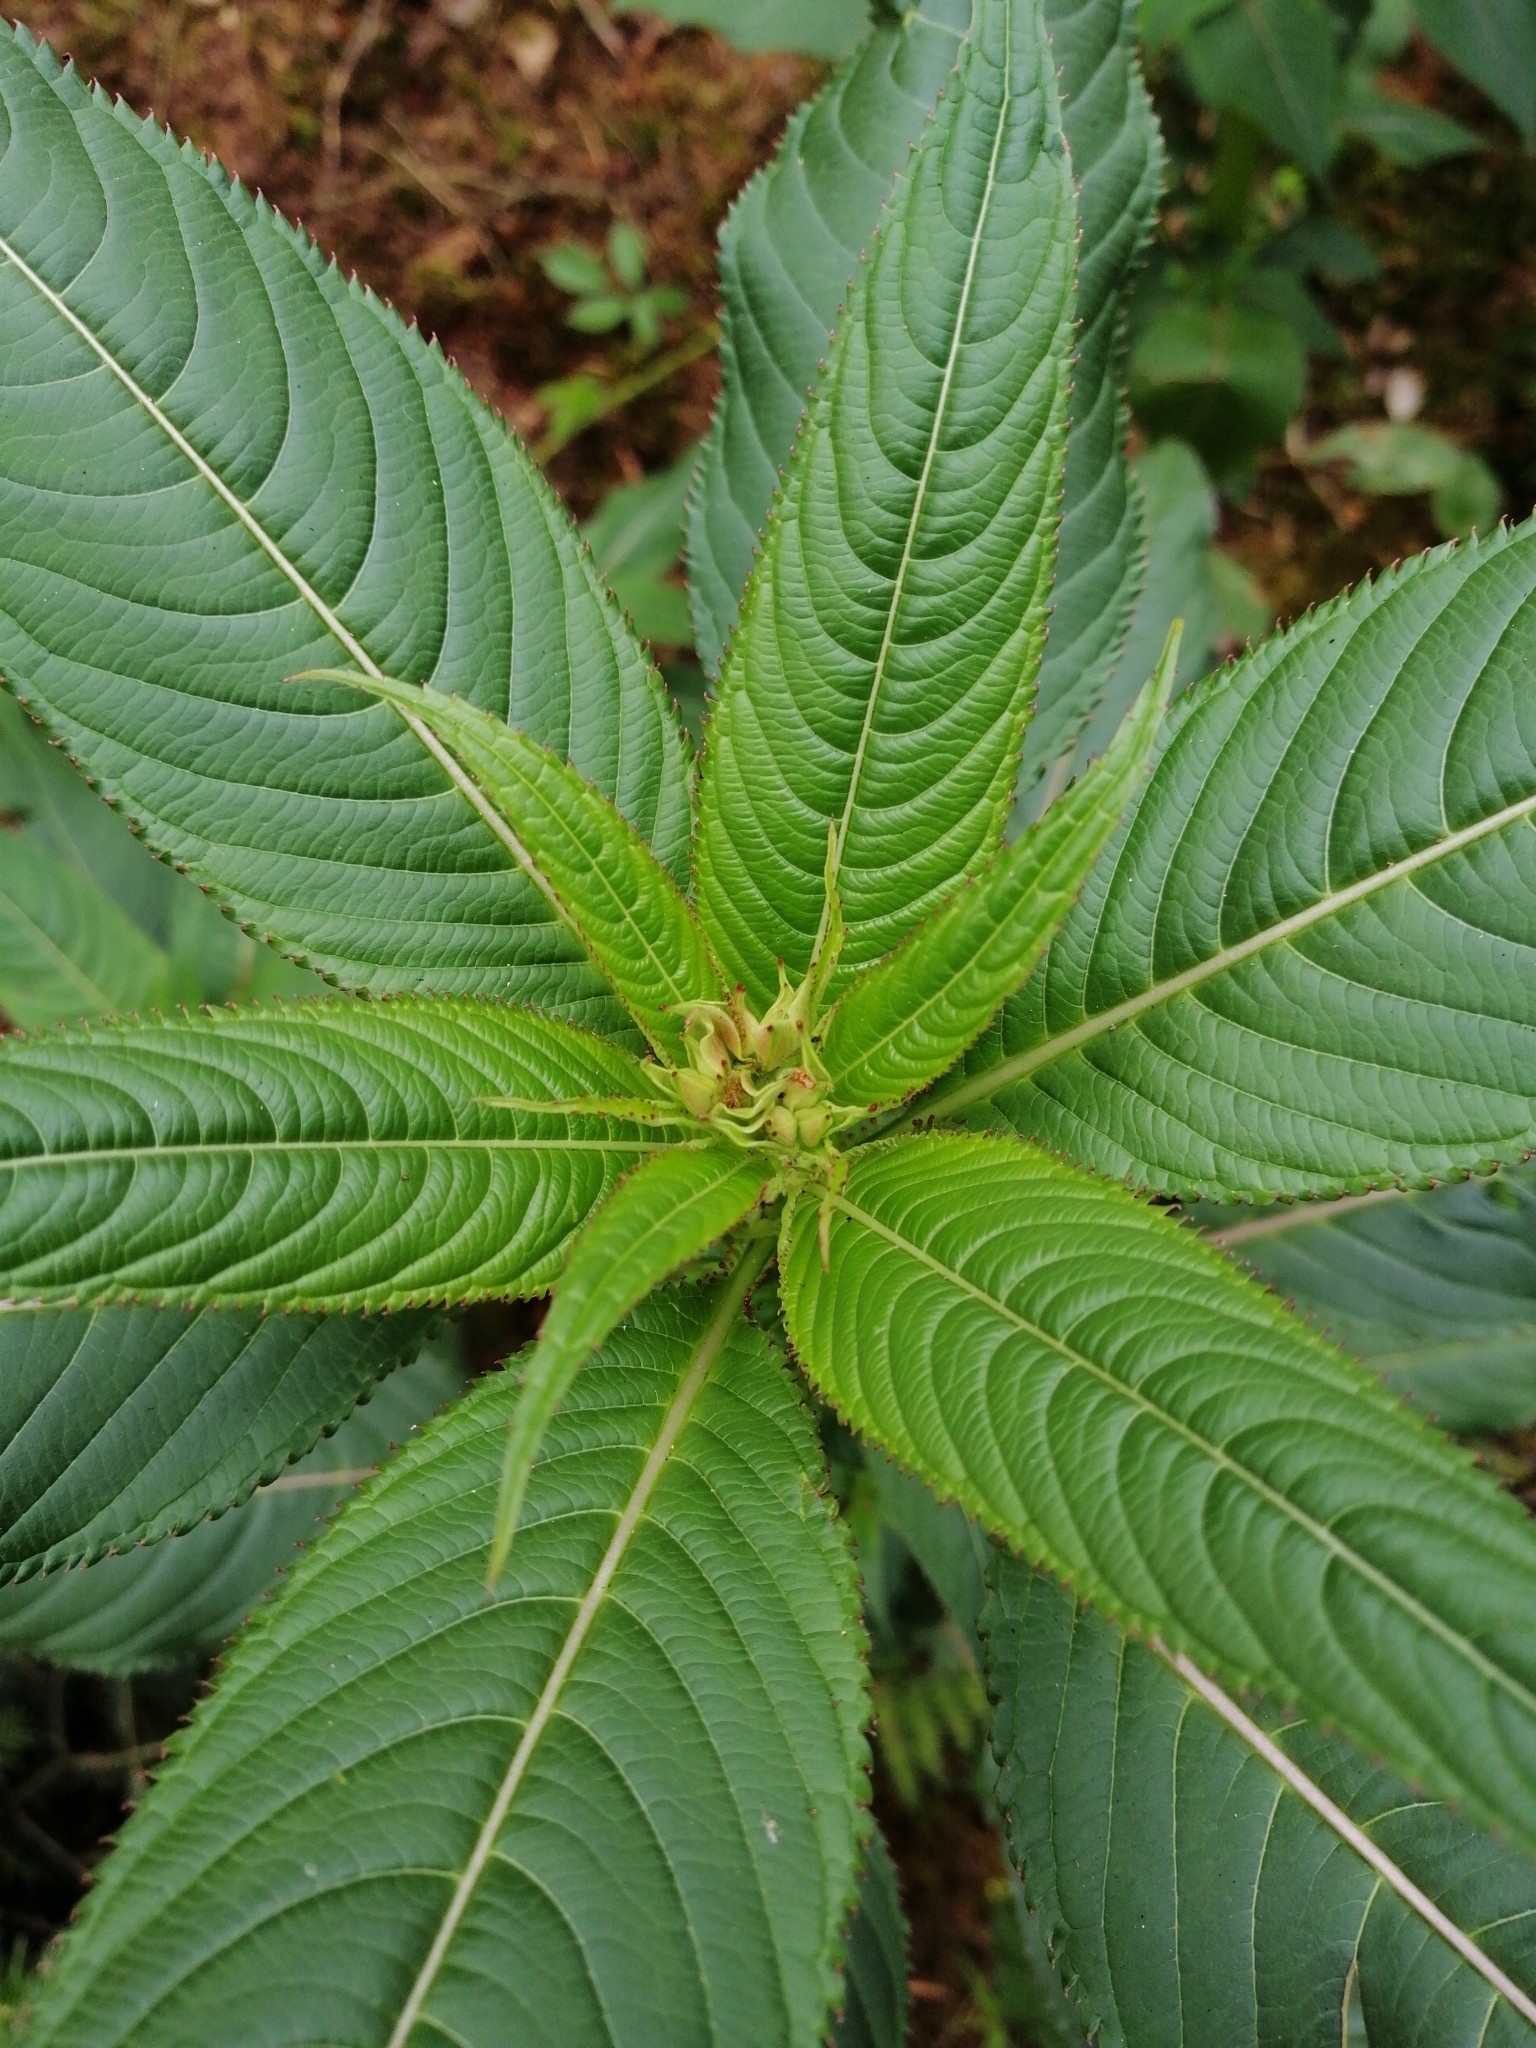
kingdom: Plantae
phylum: Tracheophyta
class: Magnoliopsida
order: Ericales
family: Balsaminaceae
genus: Impatiens
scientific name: Impatiens glandulifera
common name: Himalayan balsam
